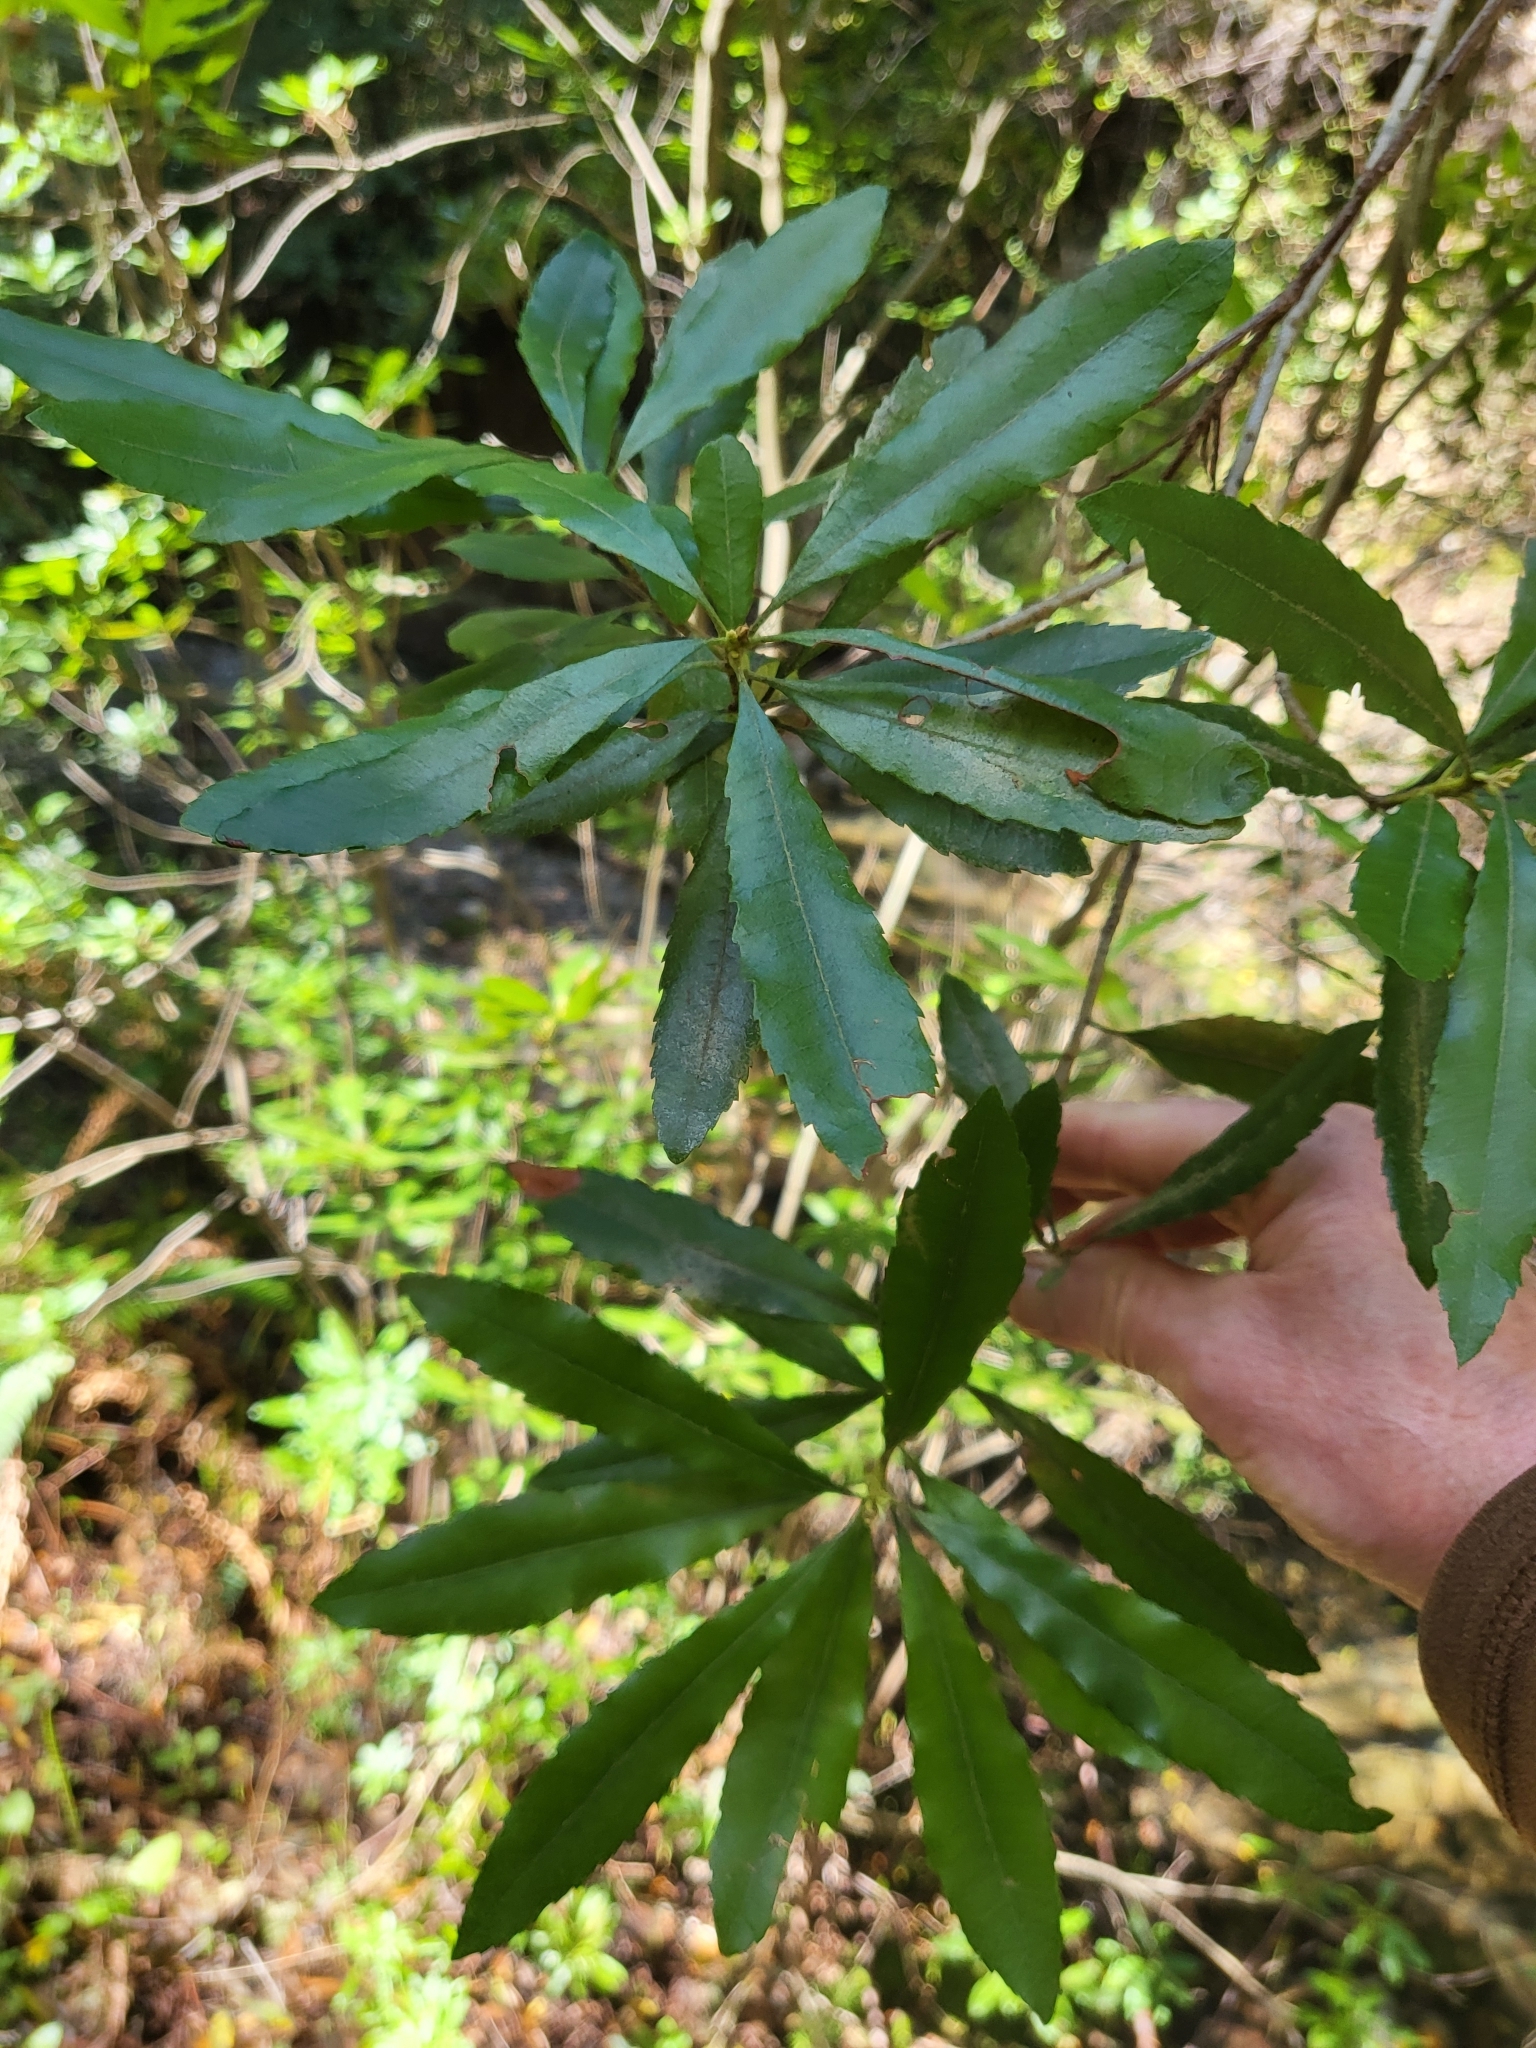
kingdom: Plantae
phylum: Tracheophyta
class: Magnoliopsida
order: Fagales
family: Myricaceae
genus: Morella
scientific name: Morella californica
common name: California wax-myrtle
